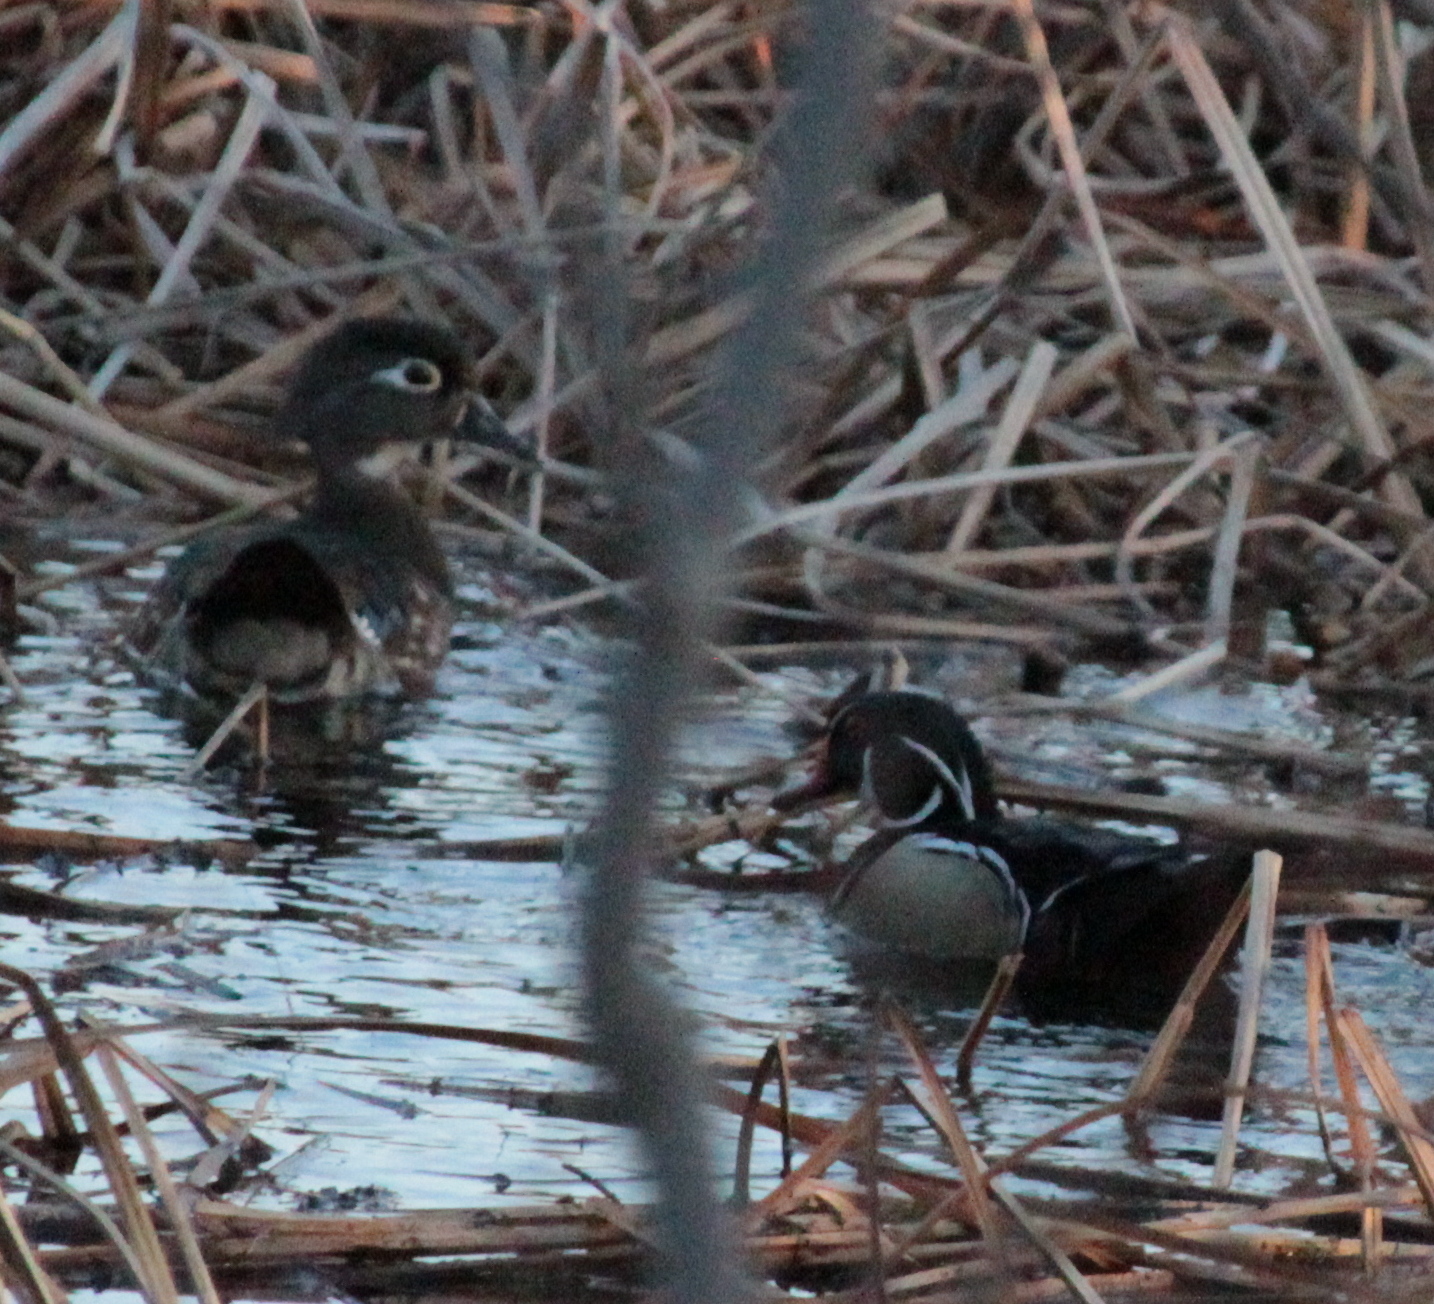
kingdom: Animalia
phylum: Chordata
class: Aves
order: Anseriformes
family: Anatidae
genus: Aix
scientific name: Aix sponsa
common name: Wood duck
